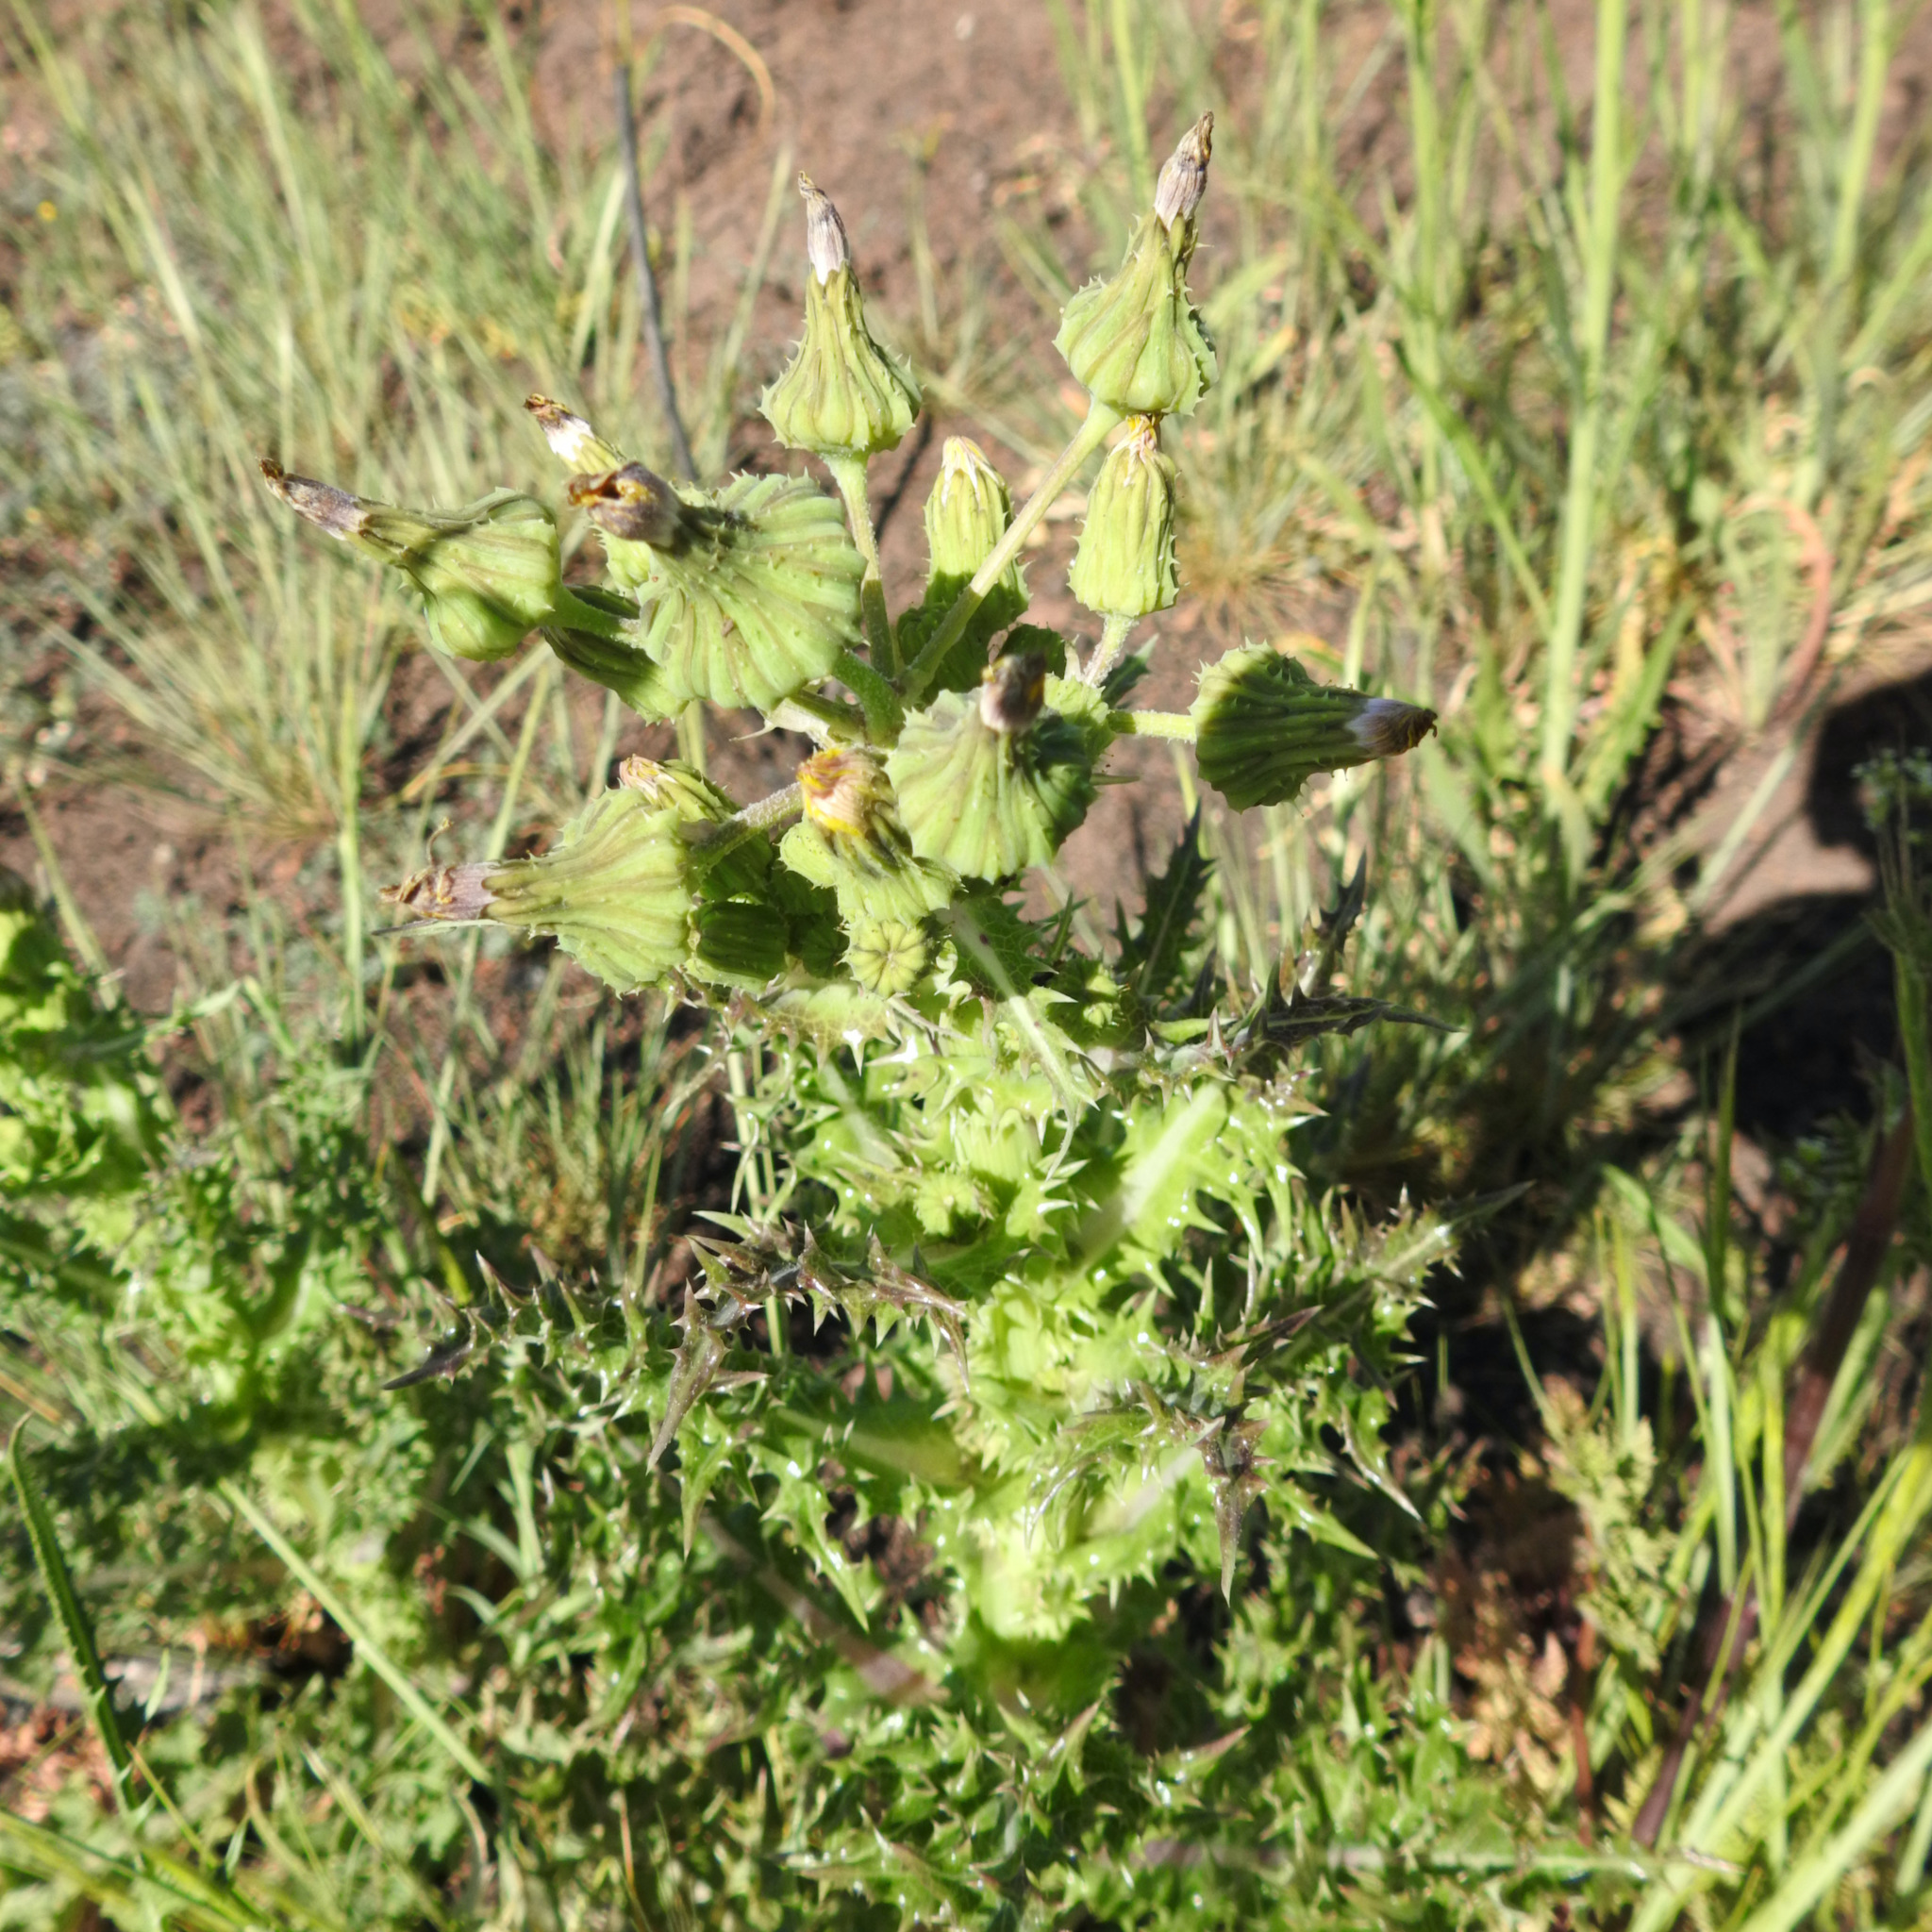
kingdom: Plantae
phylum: Tracheophyta
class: Magnoliopsida
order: Asterales
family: Asteraceae
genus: Sonchus
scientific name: Sonchus asper
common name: Prickly sow-thistle
